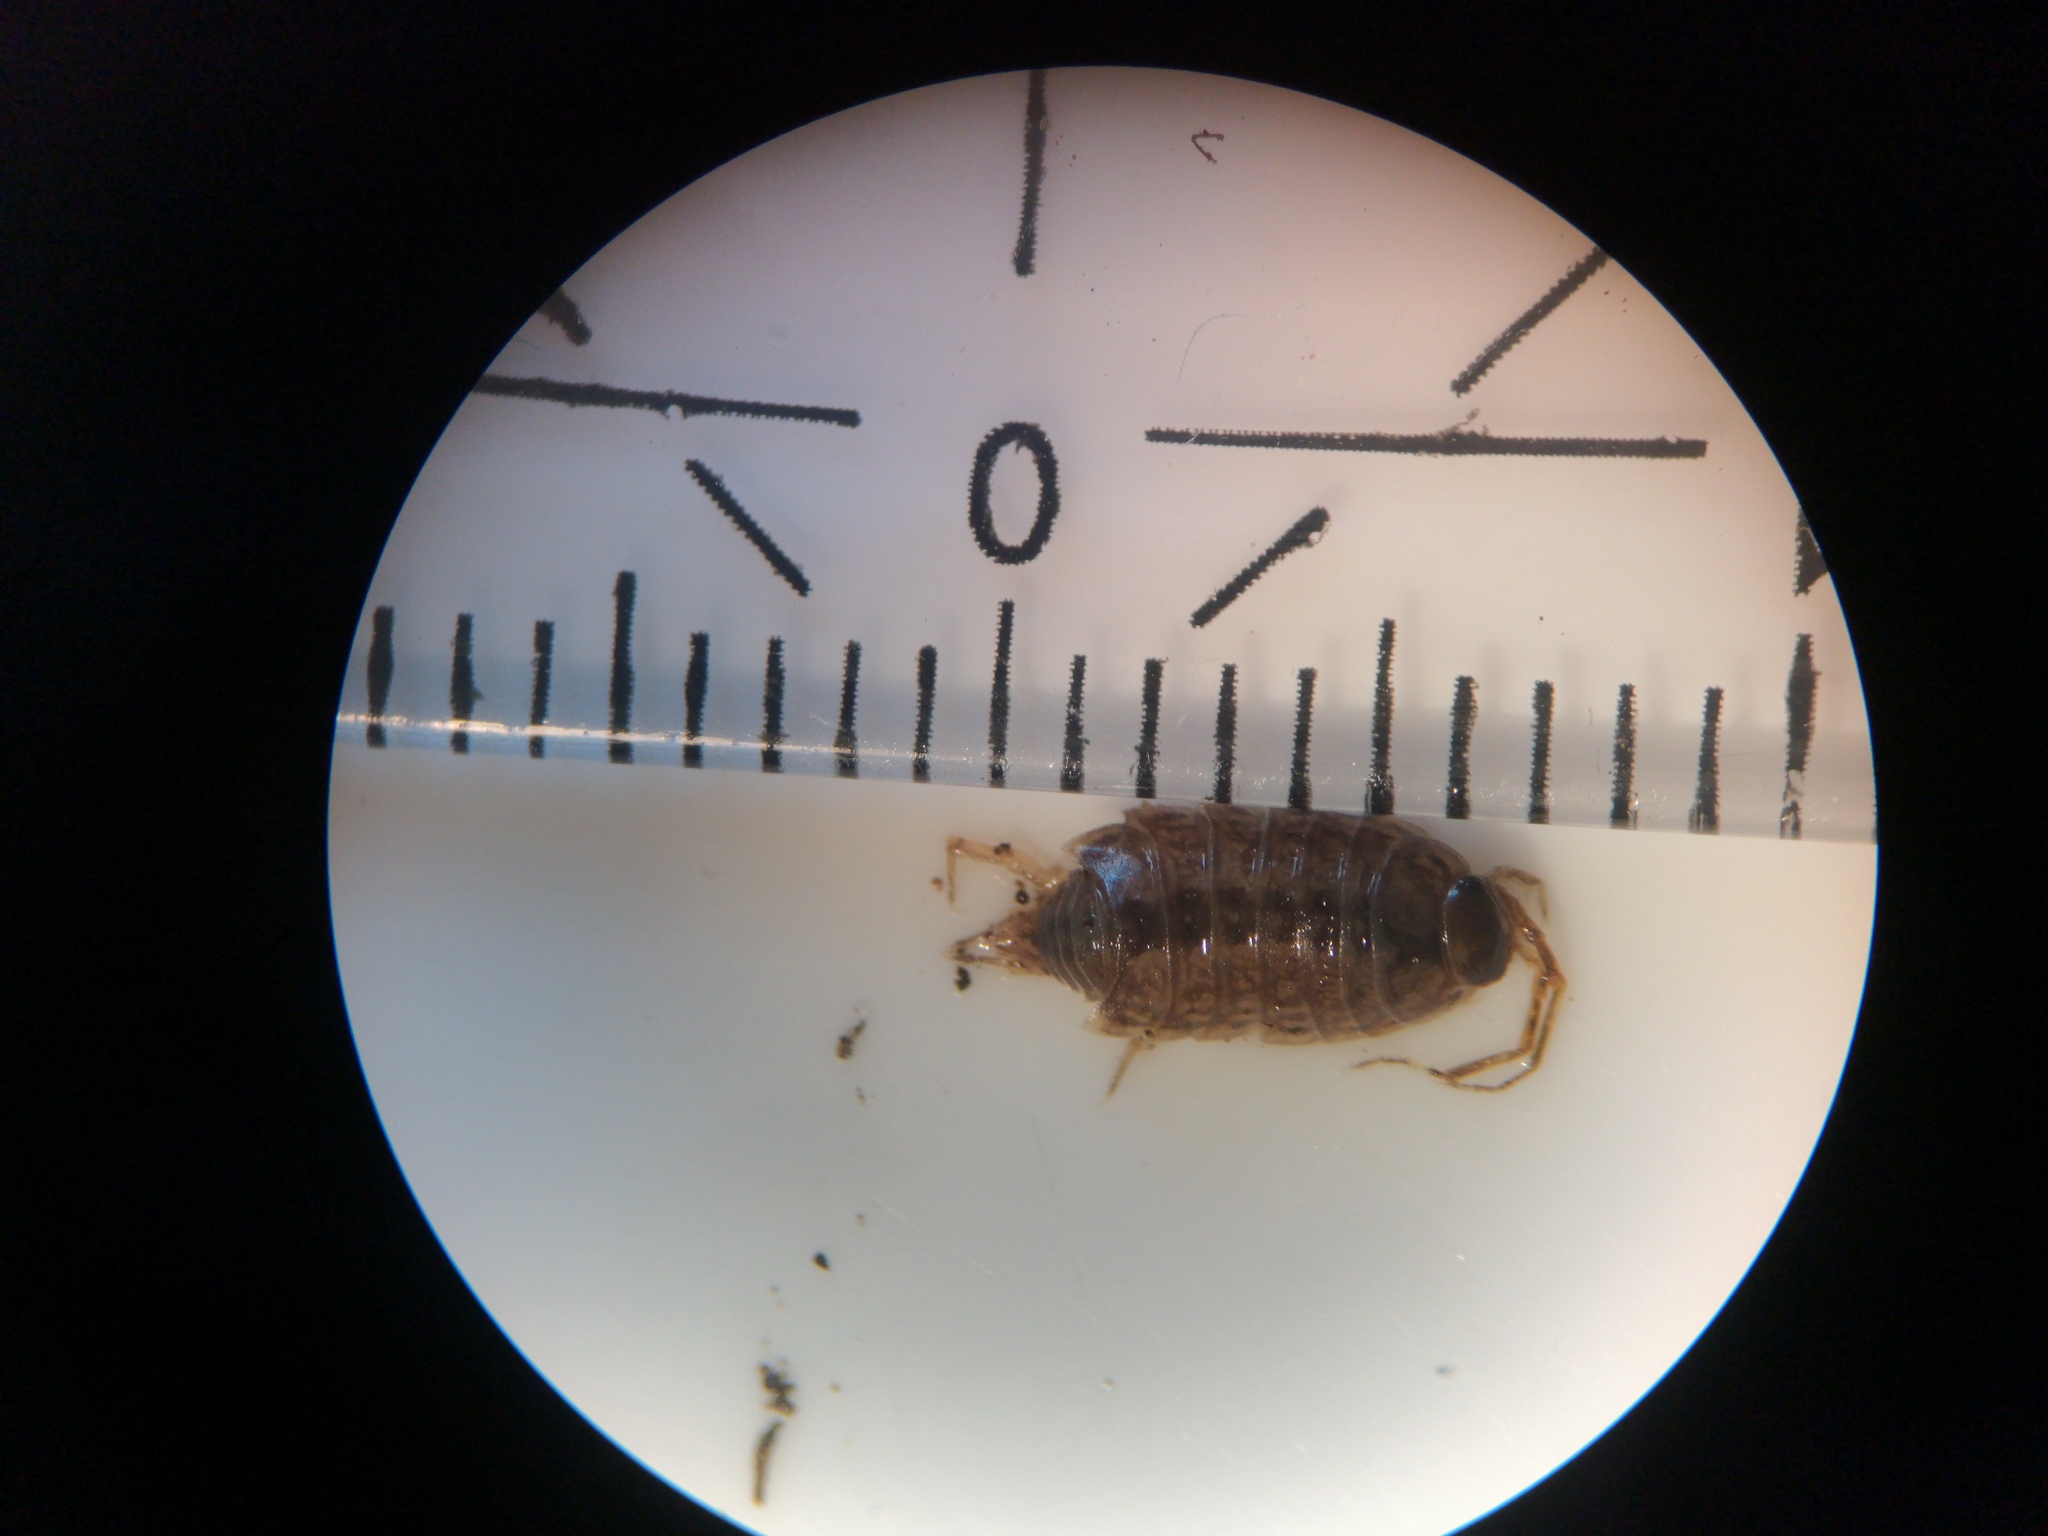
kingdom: Animalia
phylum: Arthropoda
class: Malacostraca
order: Isopoda
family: Philosciidae
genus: Philoscia
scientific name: Philoscia muscorum
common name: Common striped woodlouse
